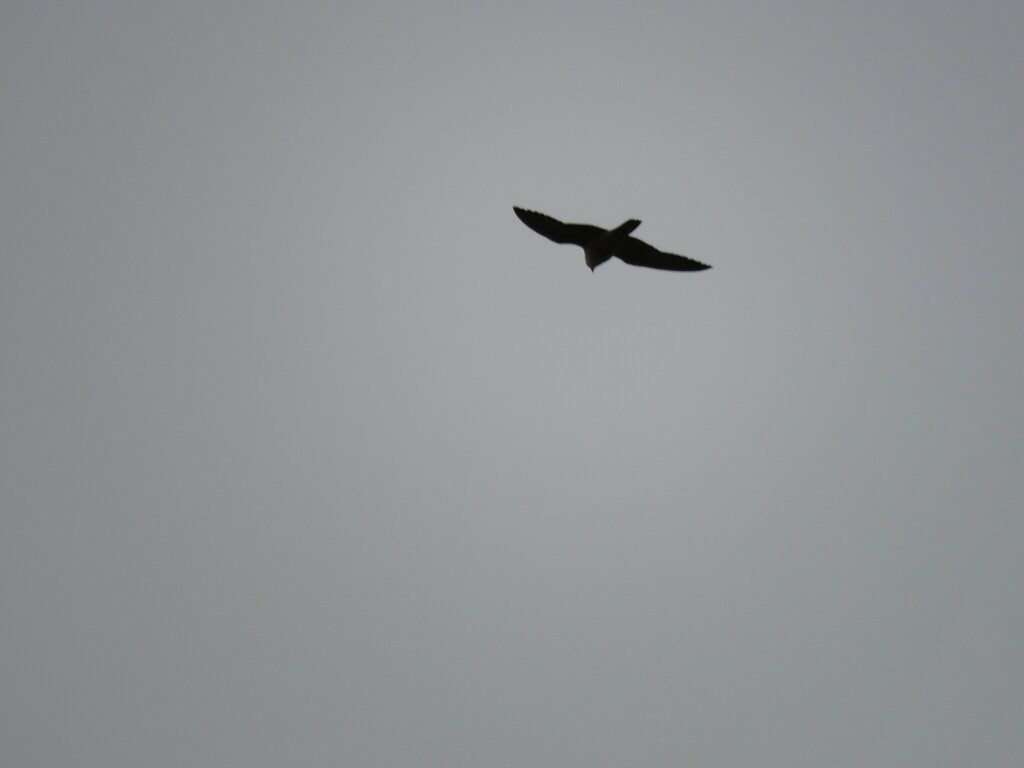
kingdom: Animalia
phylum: Chordata
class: Aves
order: Falconiformes
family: Falconidae
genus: Falco
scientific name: Falco peregrinus
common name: Peregrine falcon
